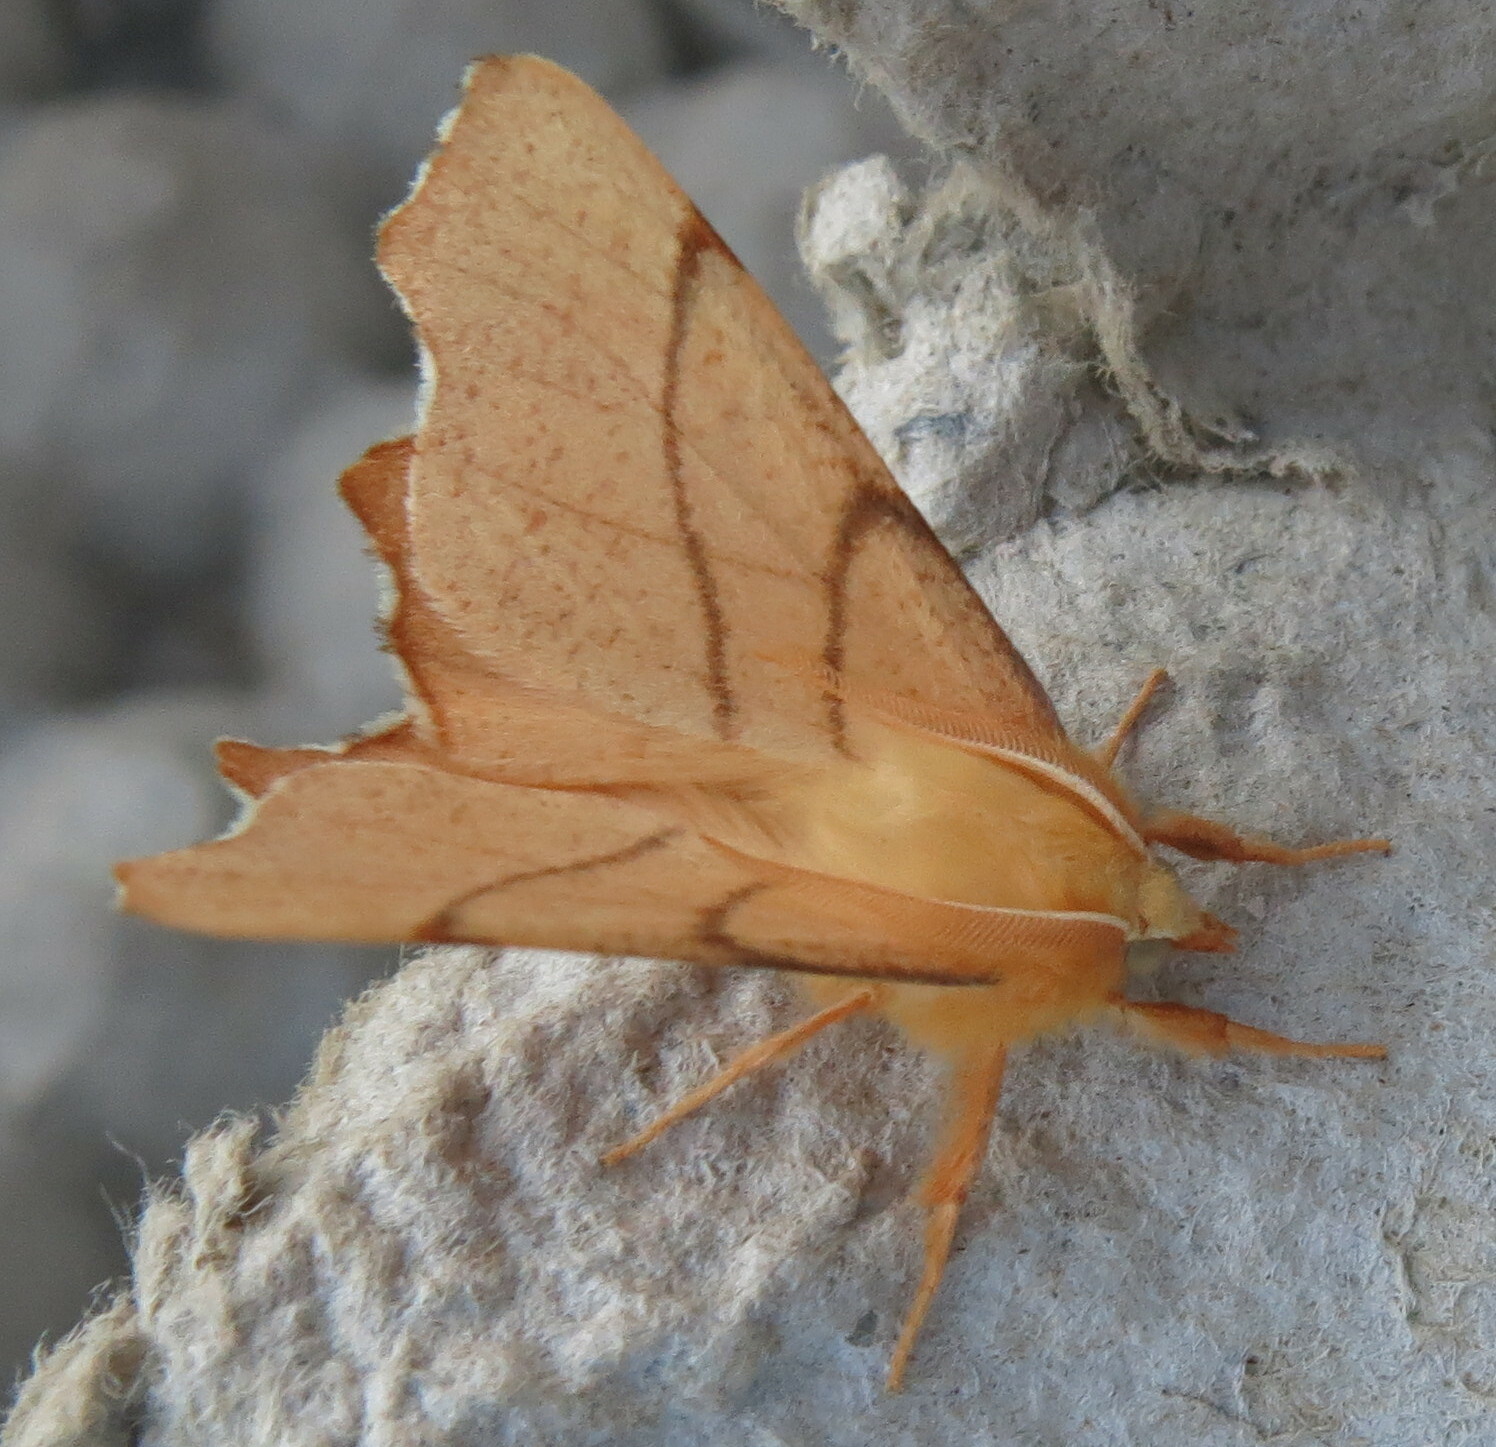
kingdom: Animalia
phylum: Arthropoda
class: Insecta
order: Lepidoptera
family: Geometridae
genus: Ennomos
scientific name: Ennomos erosaria
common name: September thorn
